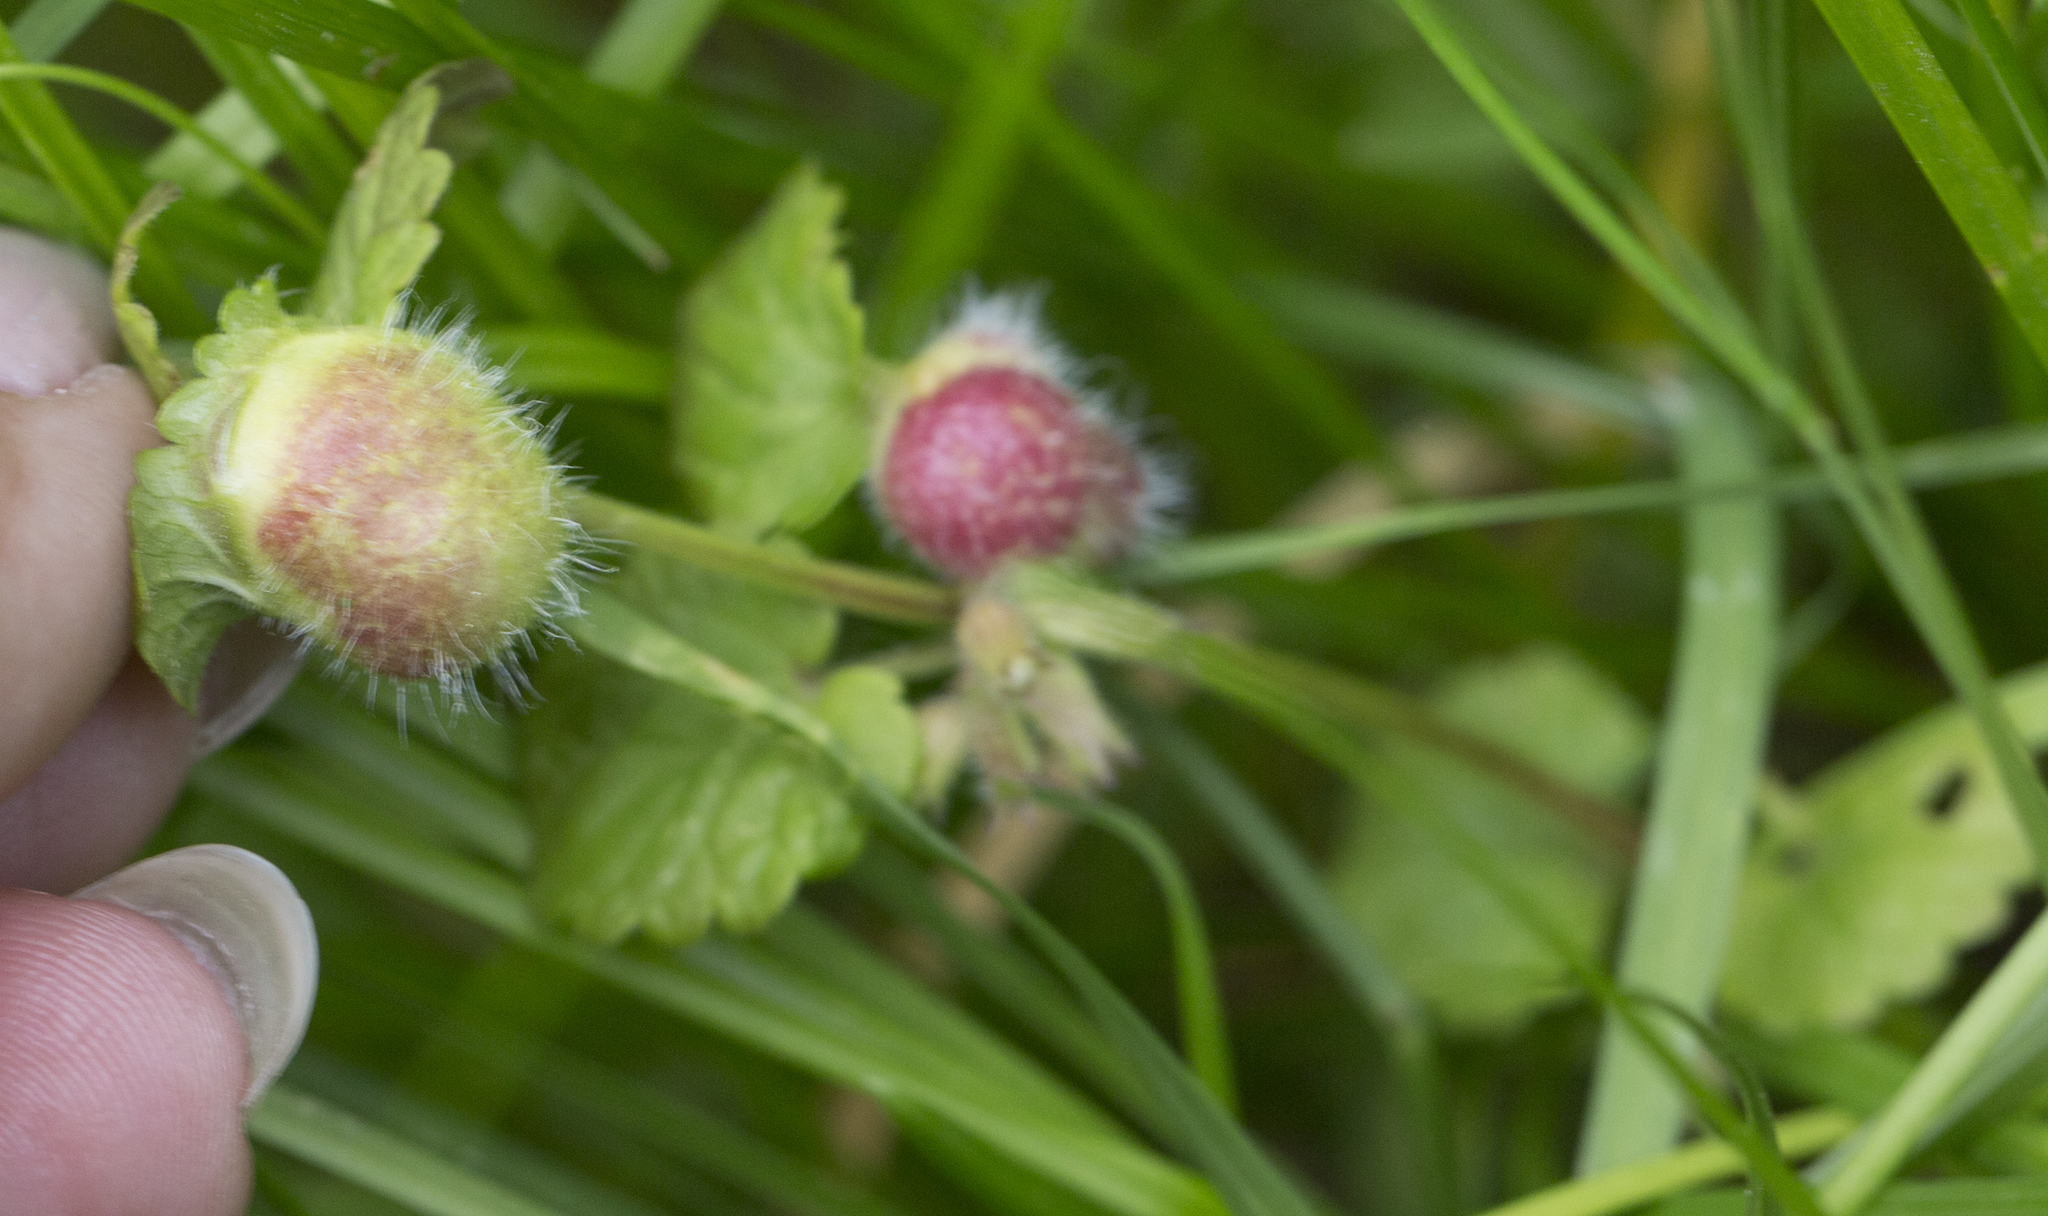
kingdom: Animalia
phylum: Arthropoda
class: Insecta
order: Hymenoptera
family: Cynipidae
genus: Liposthenes
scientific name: Liposthenes glechomae
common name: Gall wasp
